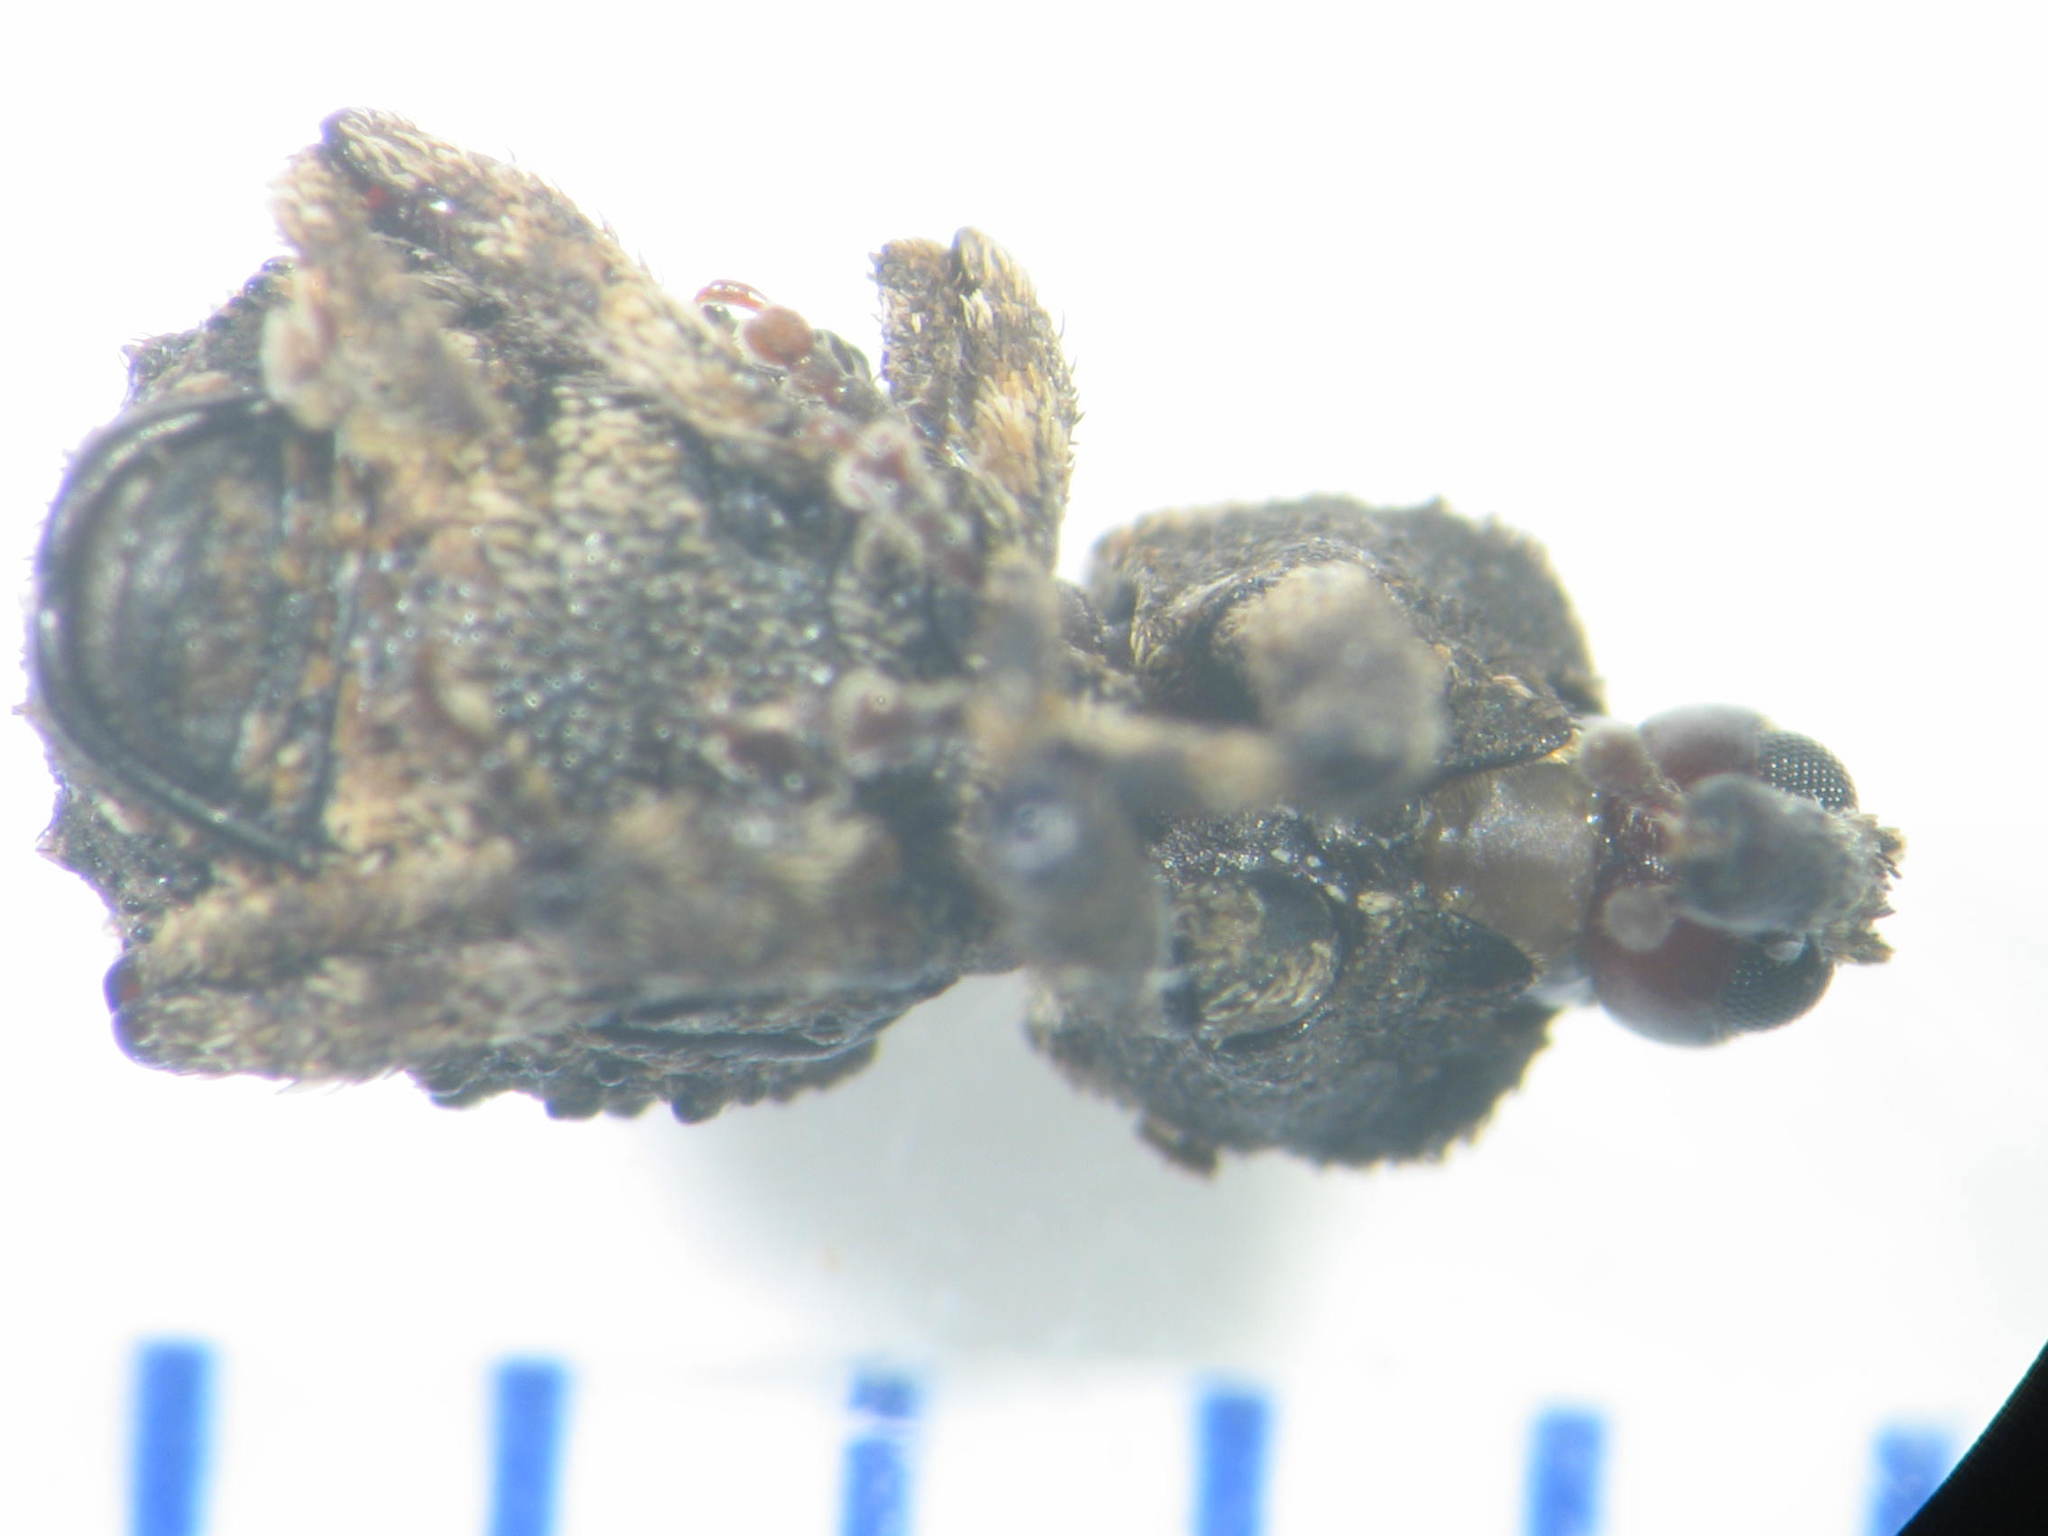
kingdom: Animalia
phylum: Arthropoda
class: Insecta
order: Coleoptera
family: Curculionidae
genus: Exithius
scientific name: Exithius cariosus
